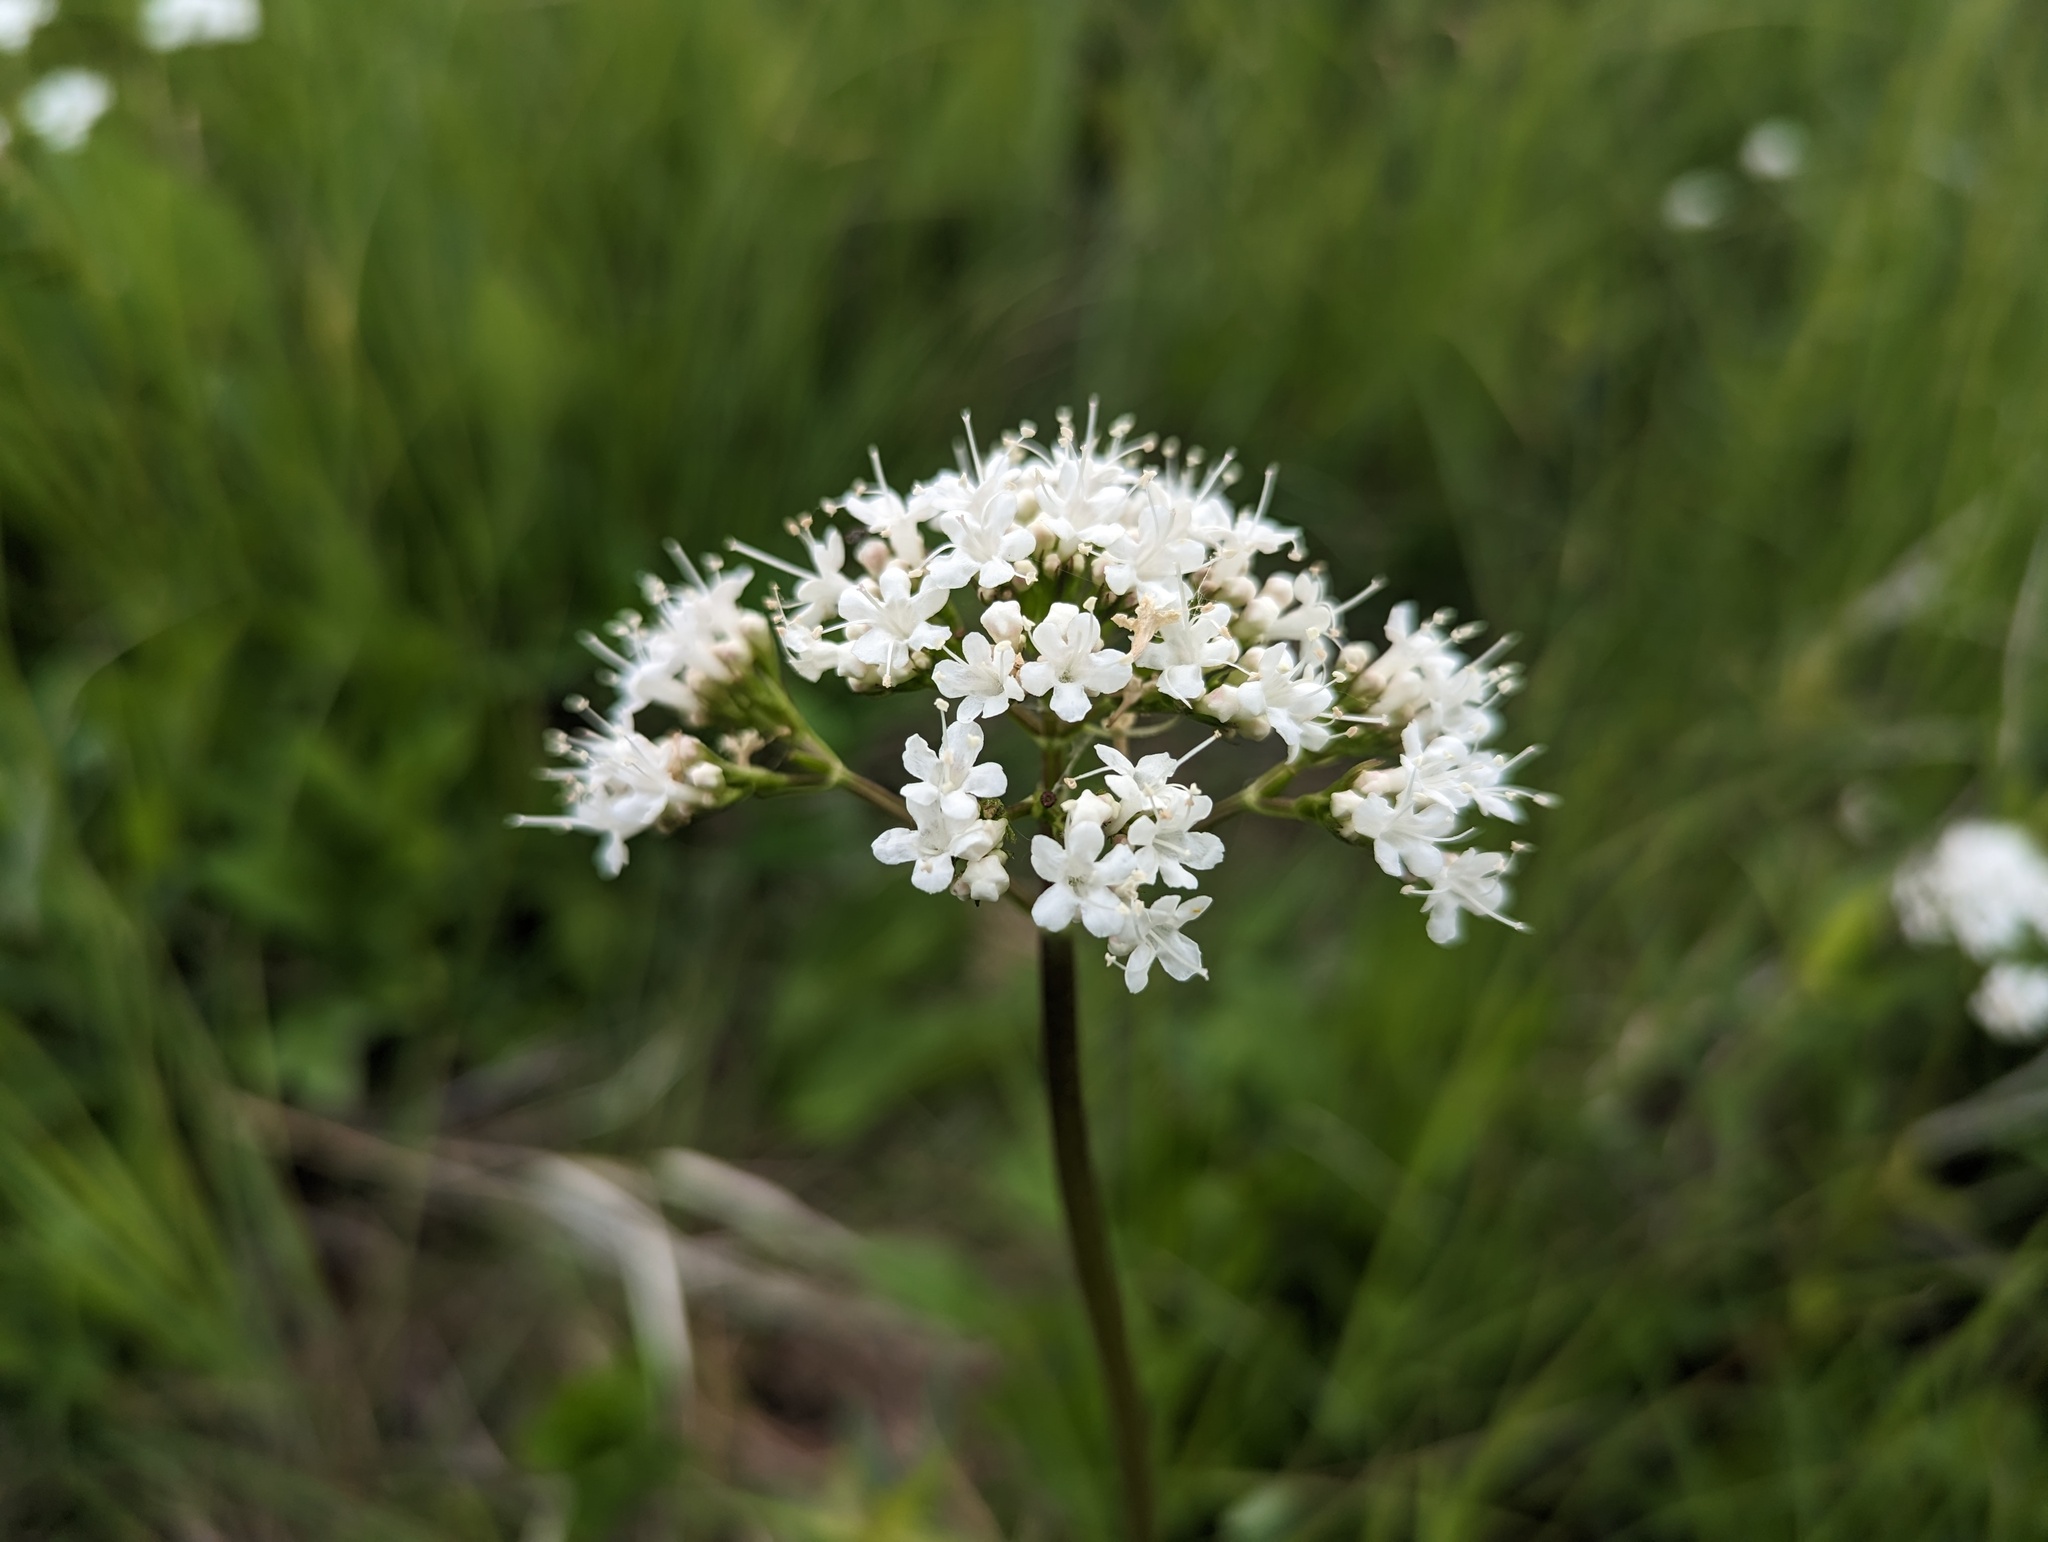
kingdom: Plantae
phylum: Tracheophyta
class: Magnoliopsida
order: Dipsacales
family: Caprifoliaceae
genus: Valeriana
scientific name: Valeriana uliginosa
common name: Marsh valerian
